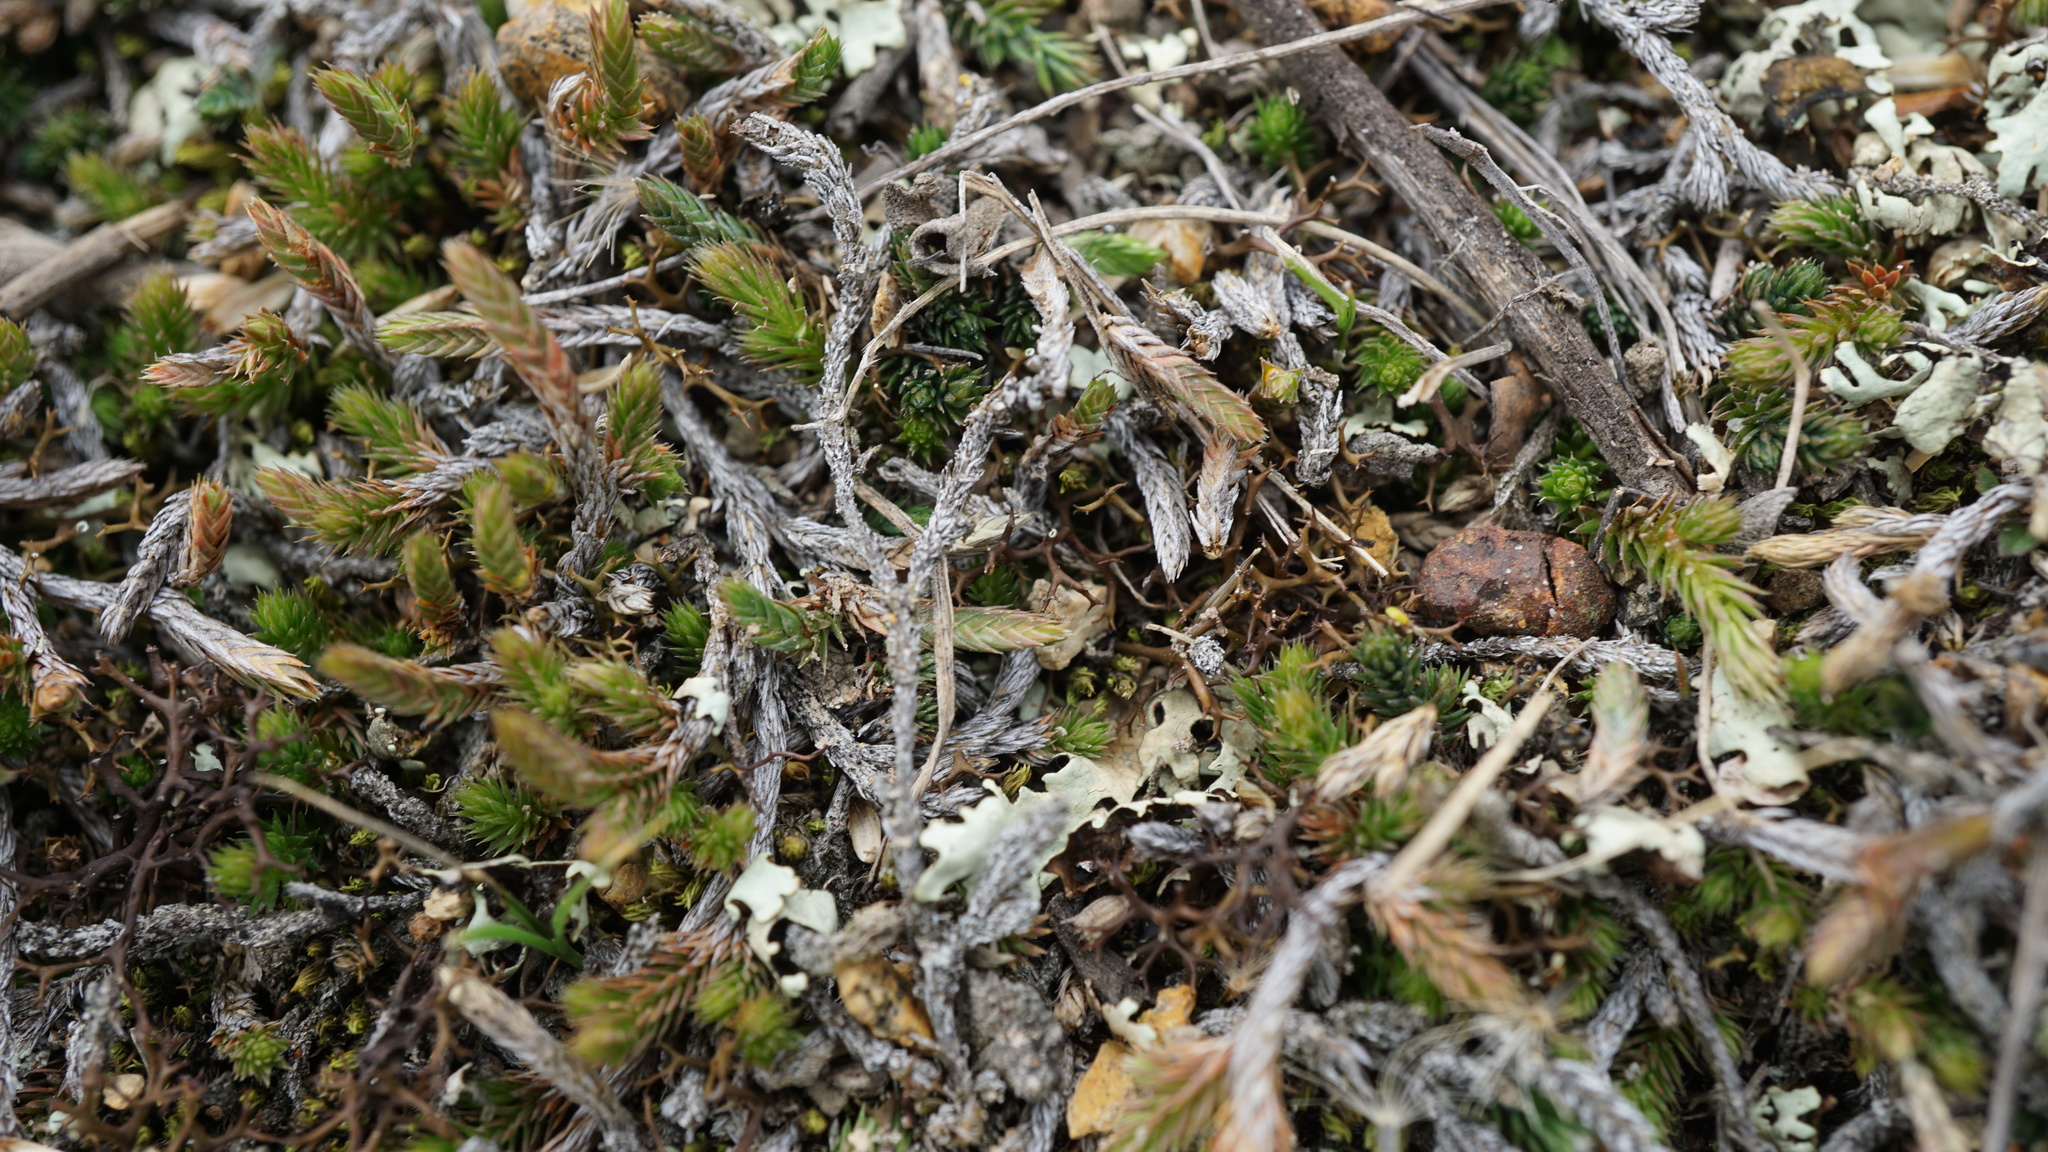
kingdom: Plantae
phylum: Tracheophyta
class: Lycopodiopsida
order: Selaginellales
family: Selaginellaceae
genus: Selaginella
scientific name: Selaginella sellowii
